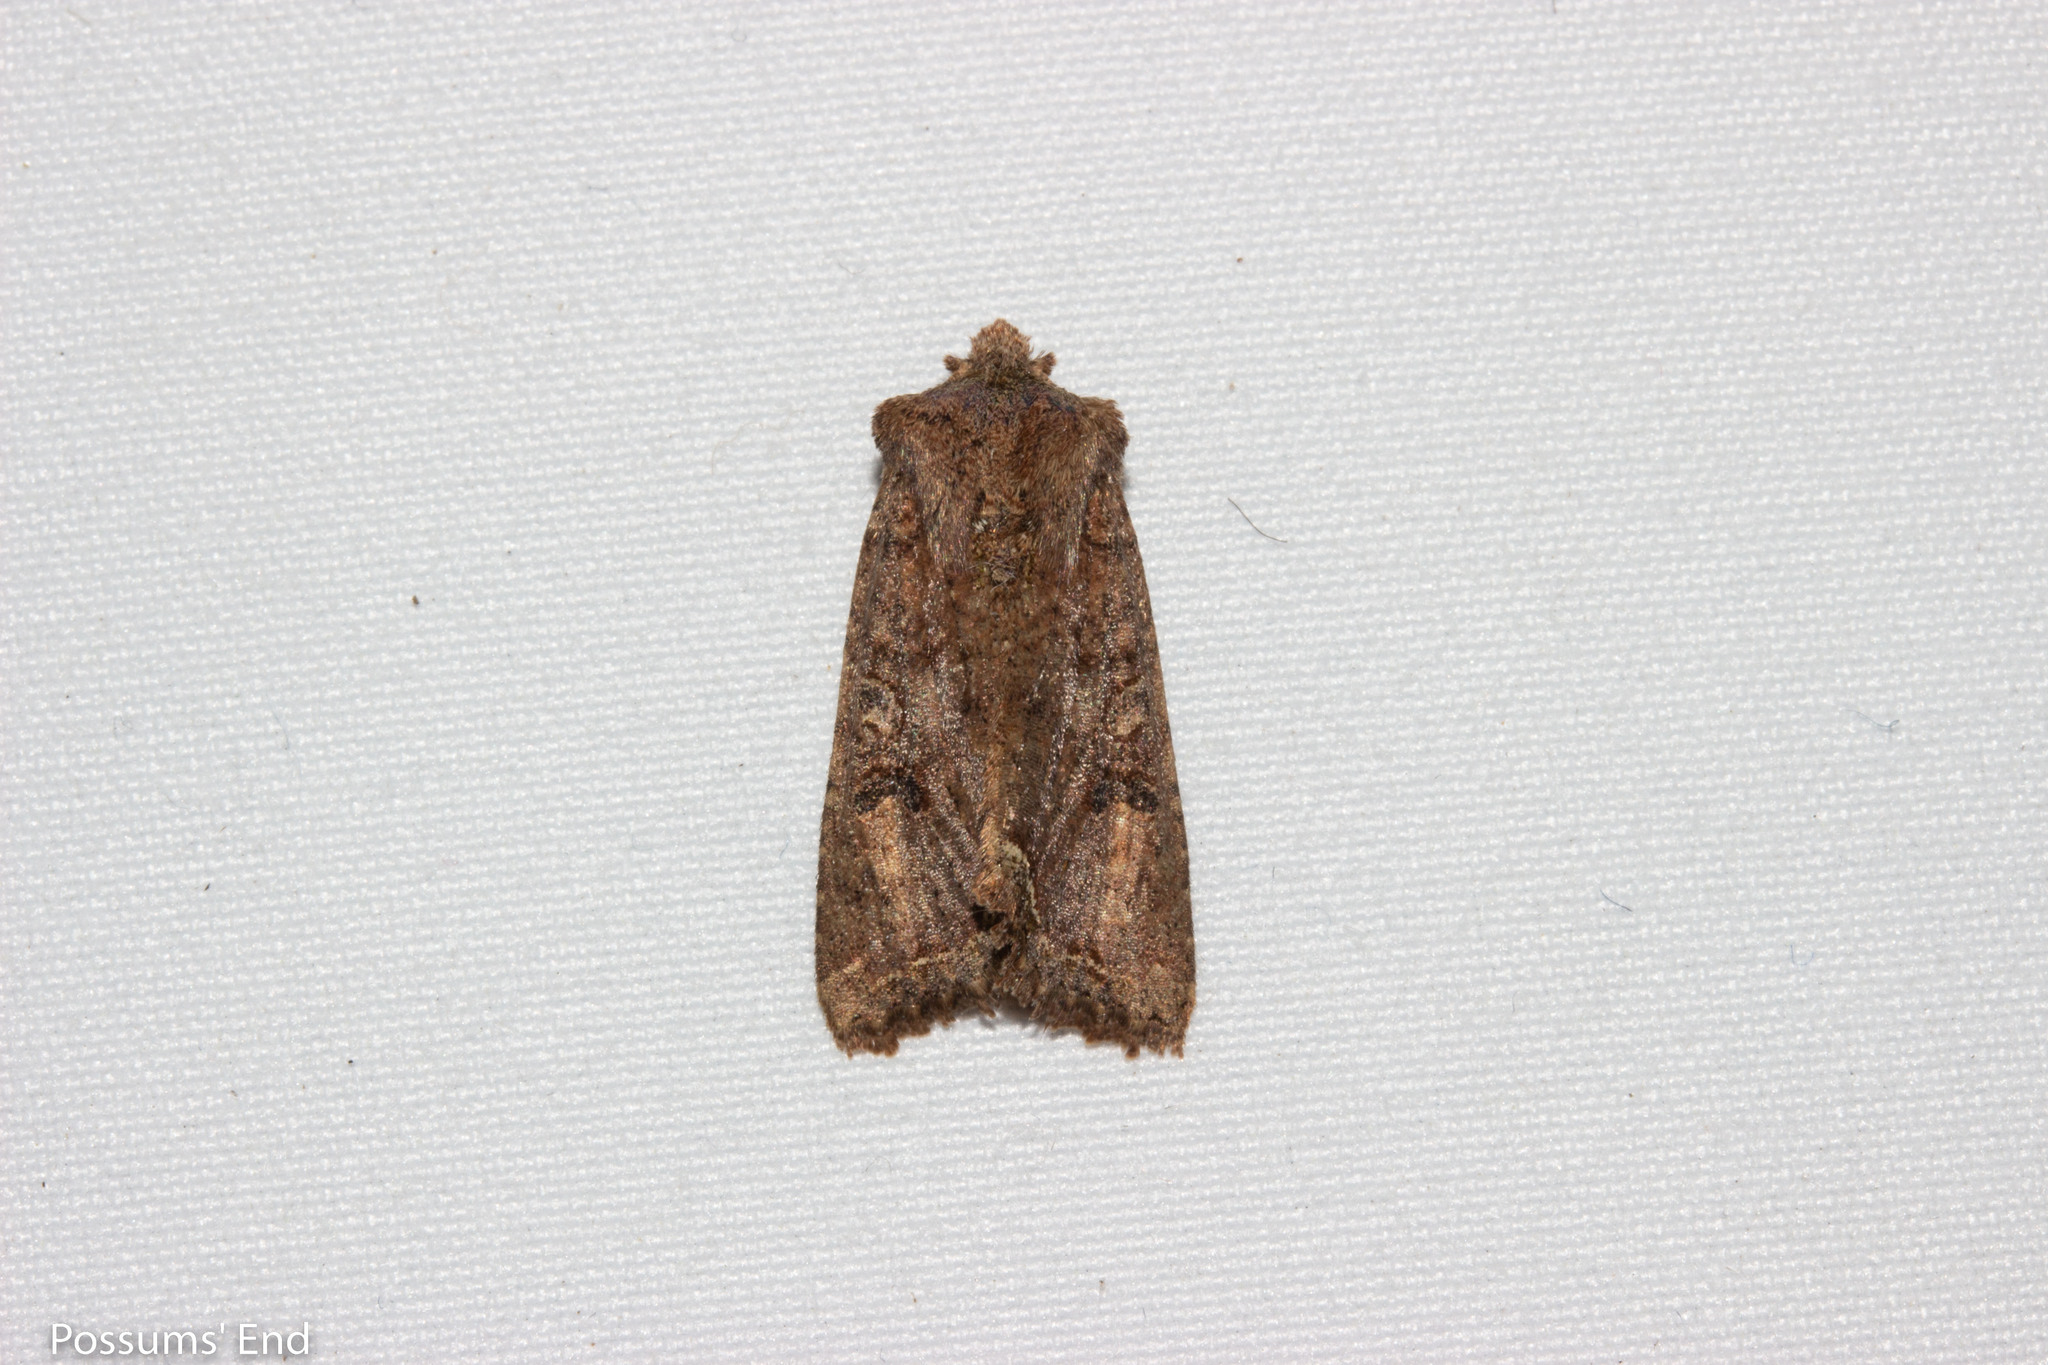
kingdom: Animalia
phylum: Arthropoda
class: Insecta
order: Lepidoptera
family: Noctuidae
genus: Meterana
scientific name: Meterana inchoata
